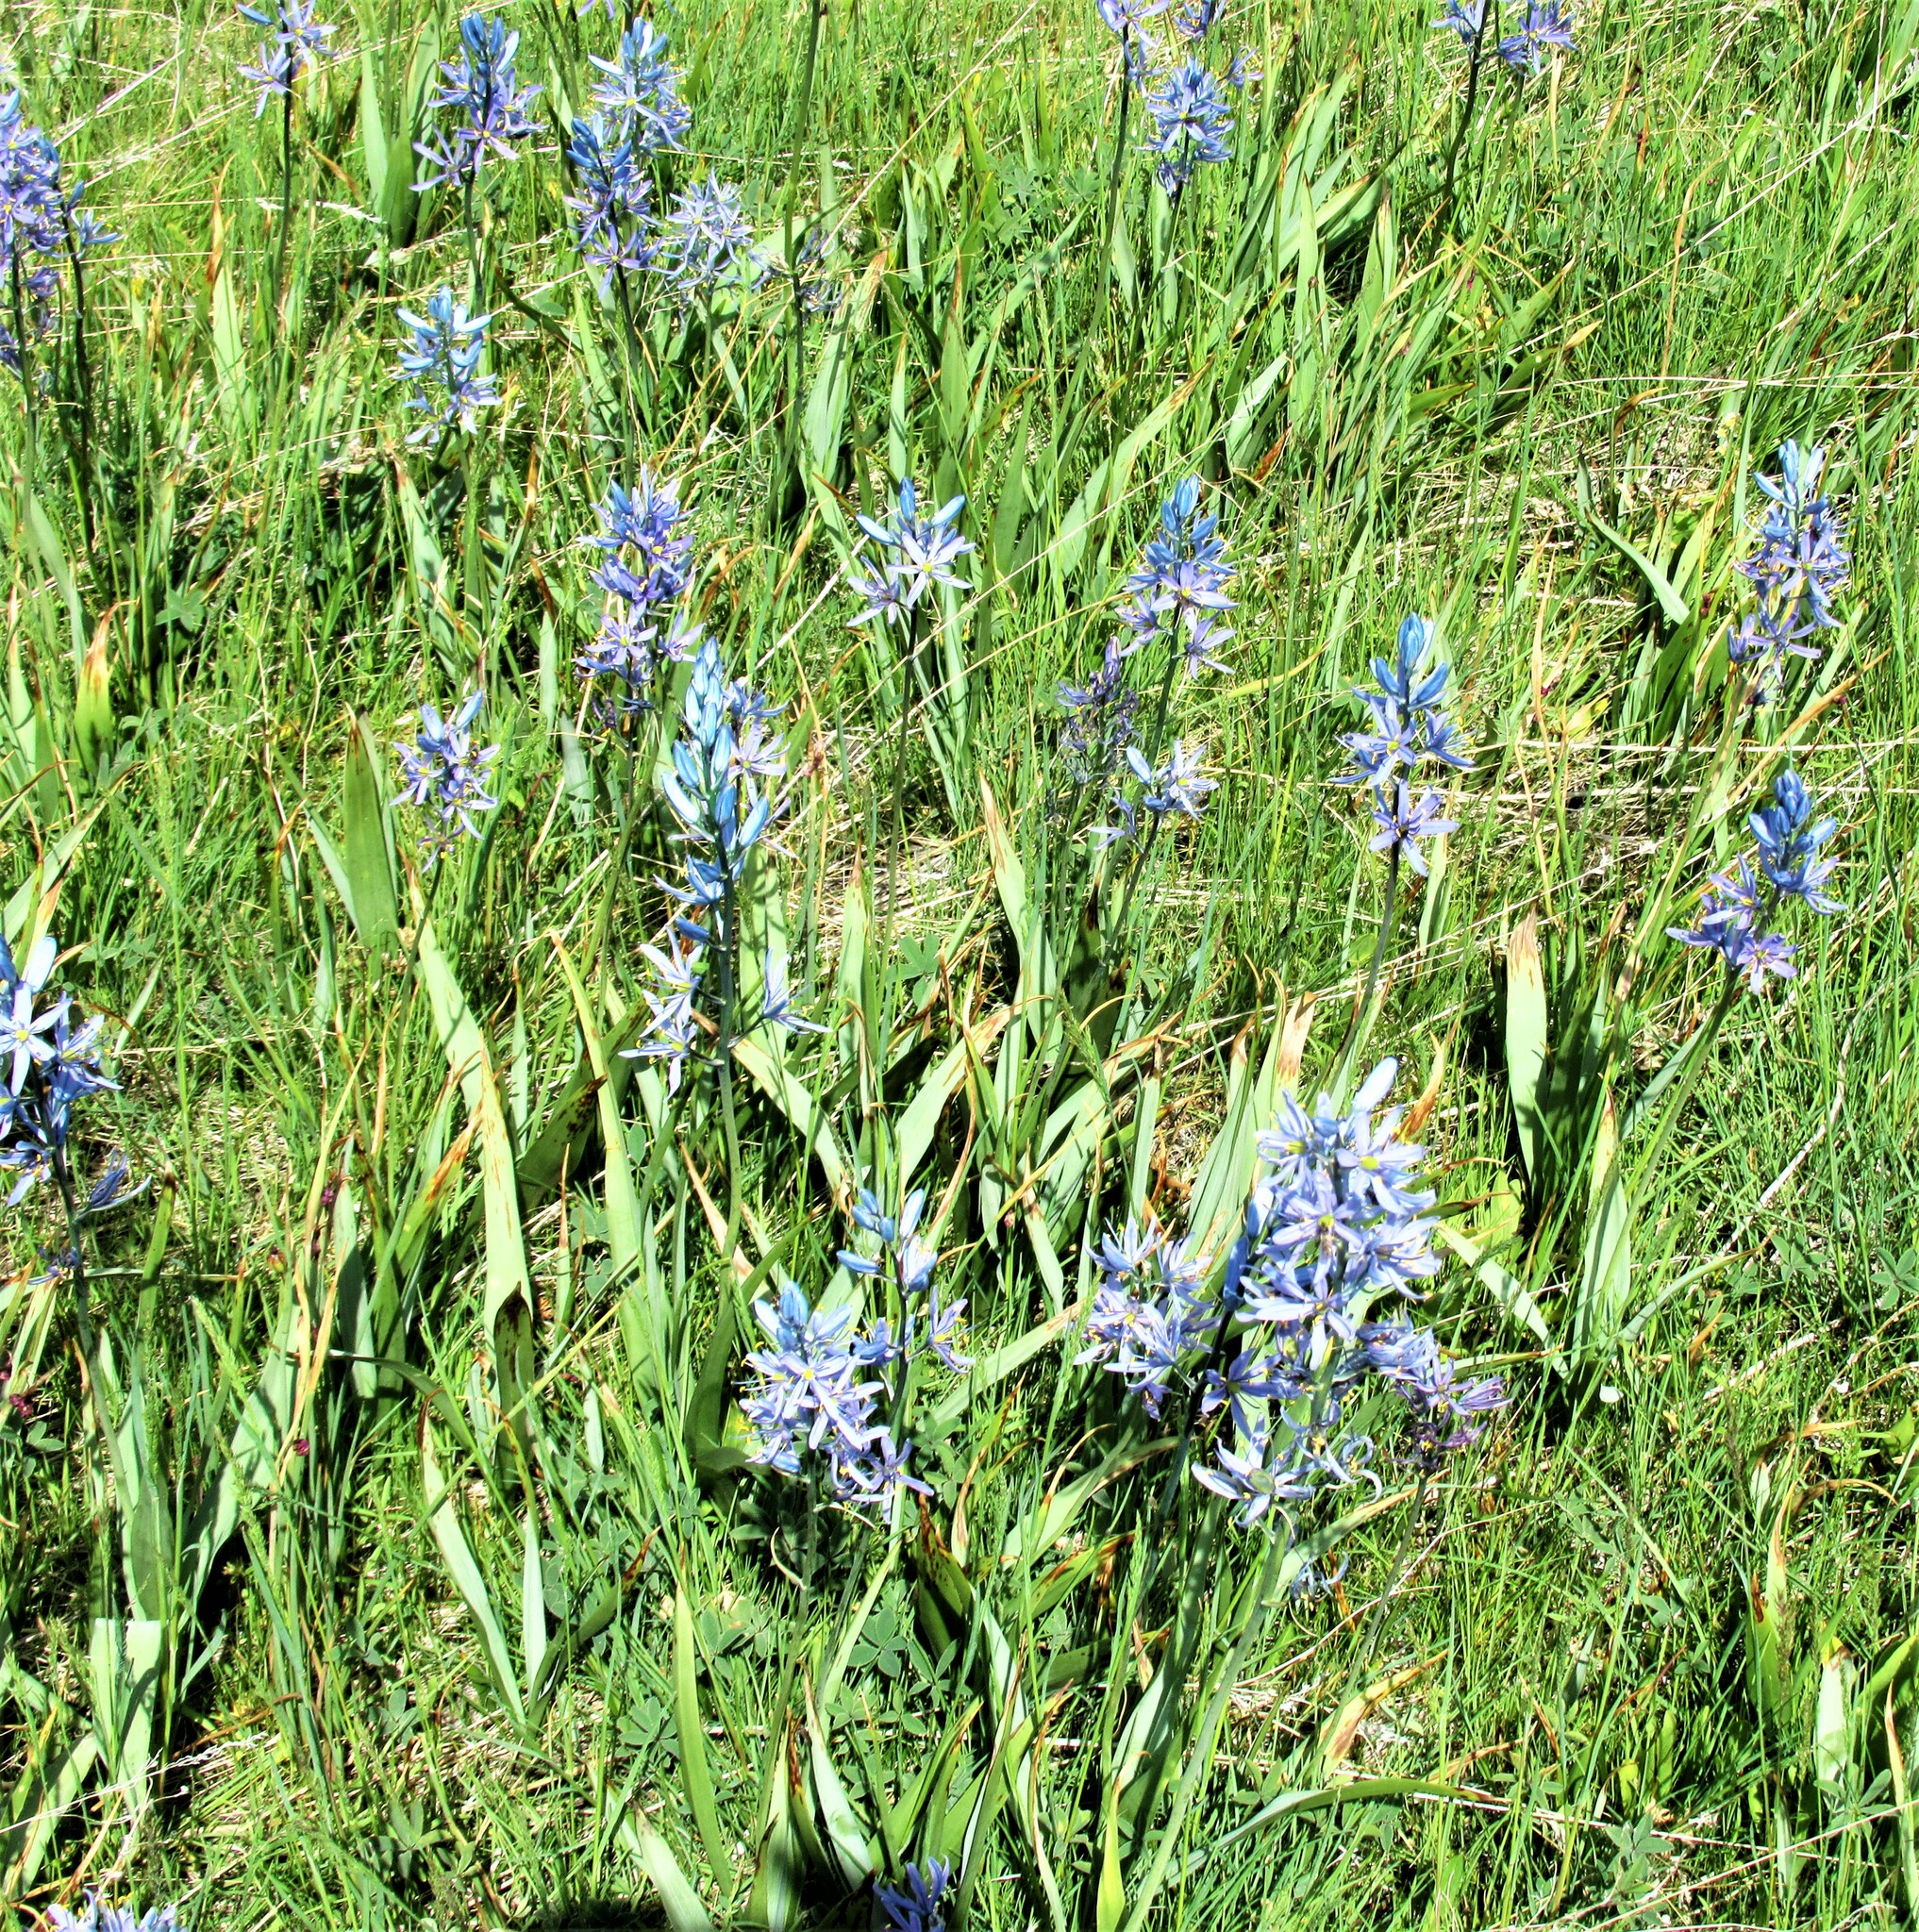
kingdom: Plantae
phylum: Tracheophyta
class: Liliopsida
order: Asparagales
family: Asparagaceae
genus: Camassia
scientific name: Camassia quamash
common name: Common camas
